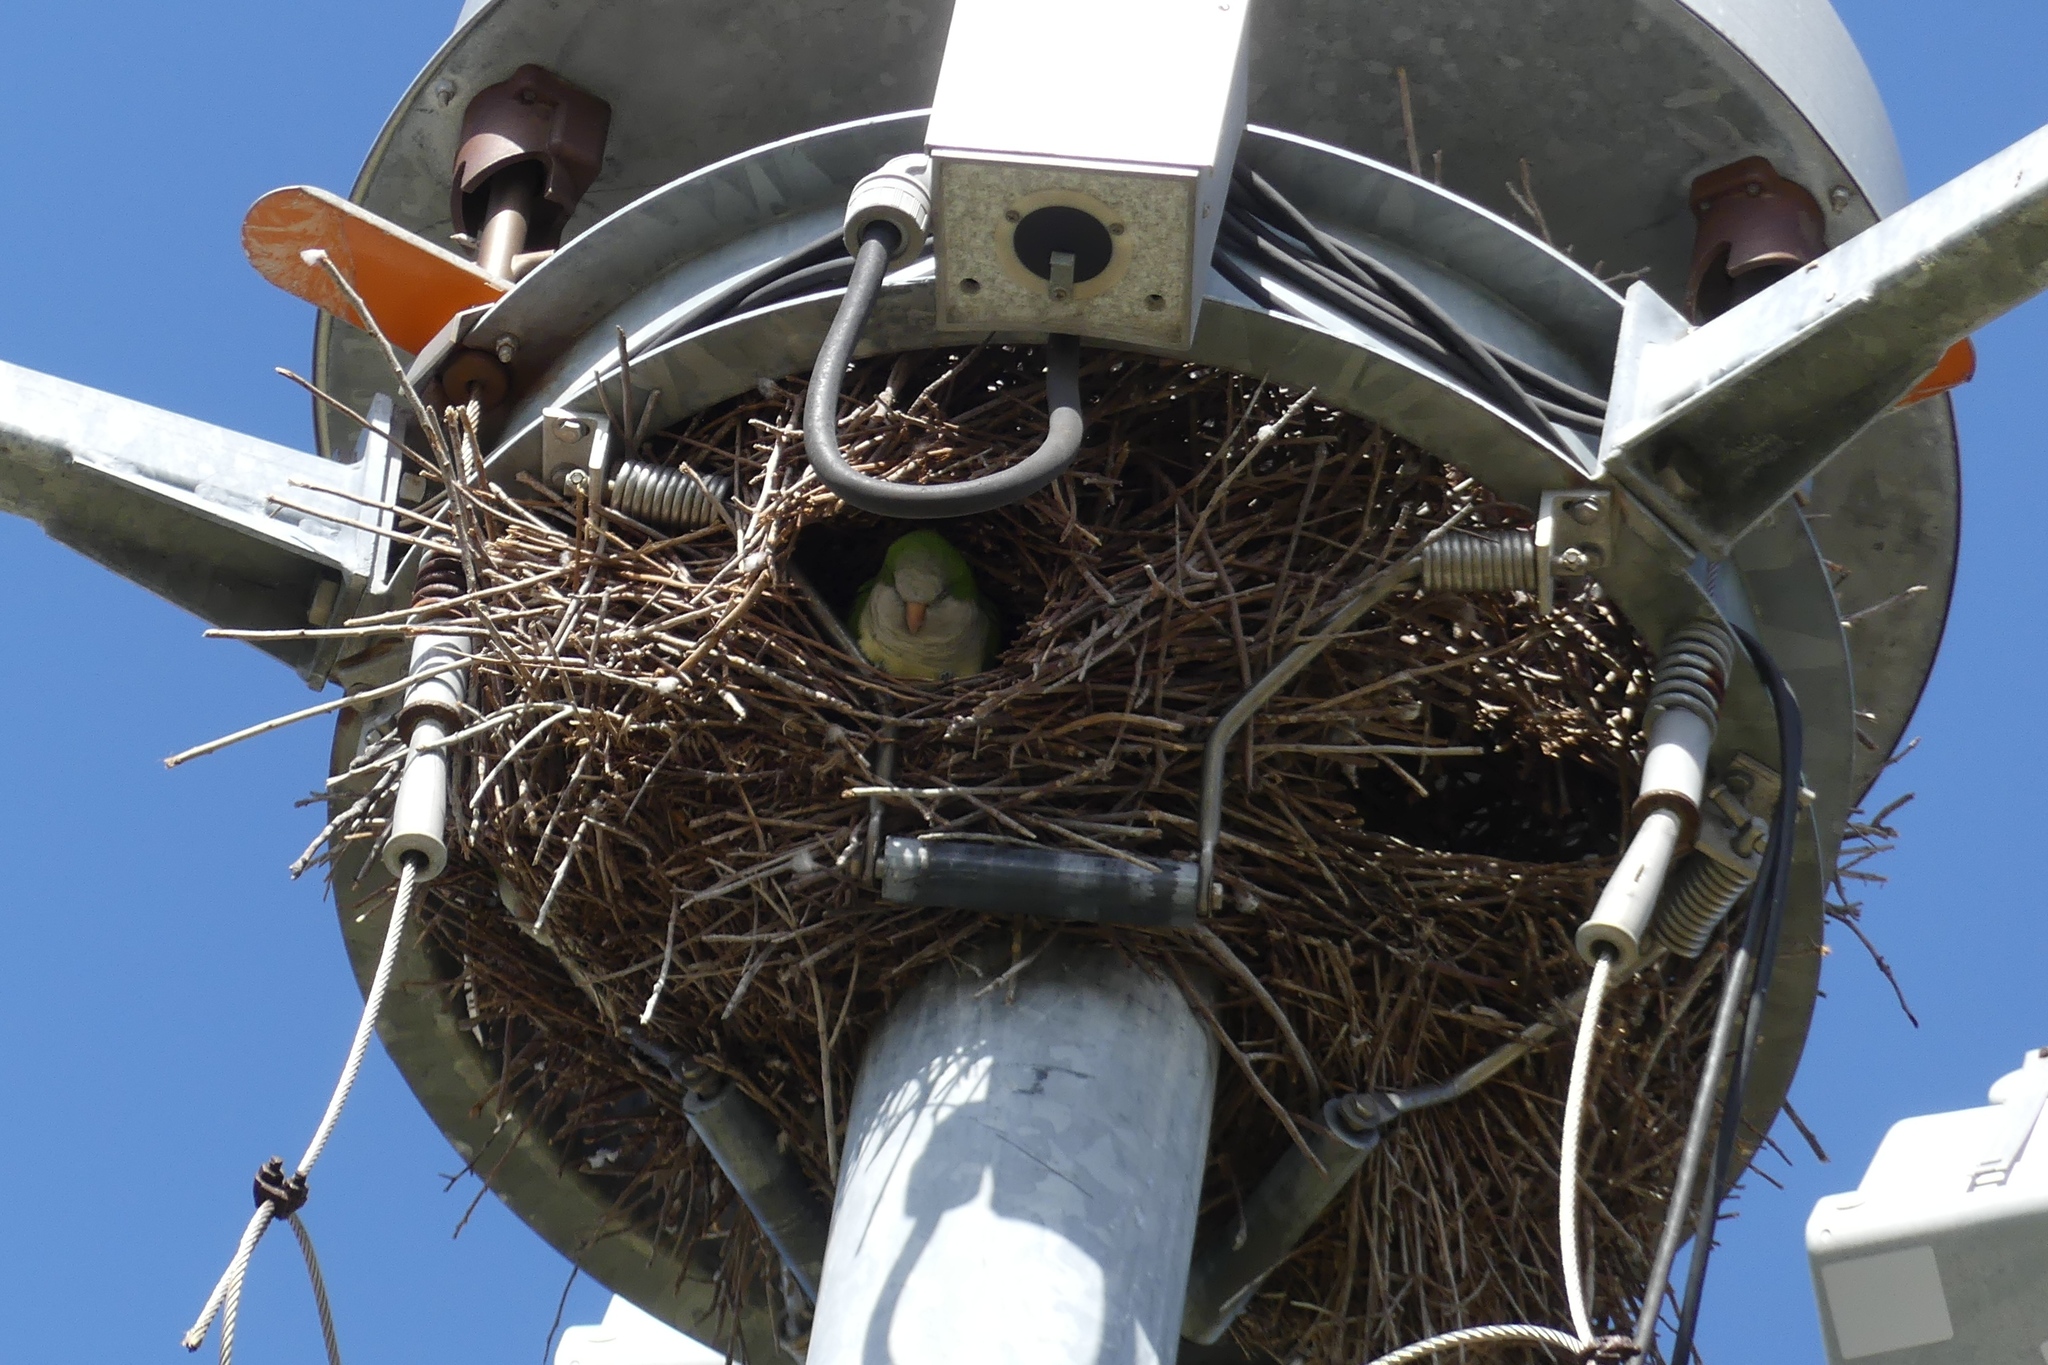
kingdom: Animalia
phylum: Chordata
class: Aves
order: Psittaciformes
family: Psittacidae
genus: Myiopsitta
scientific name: Myiopsitta monachus
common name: Monk parakeet
